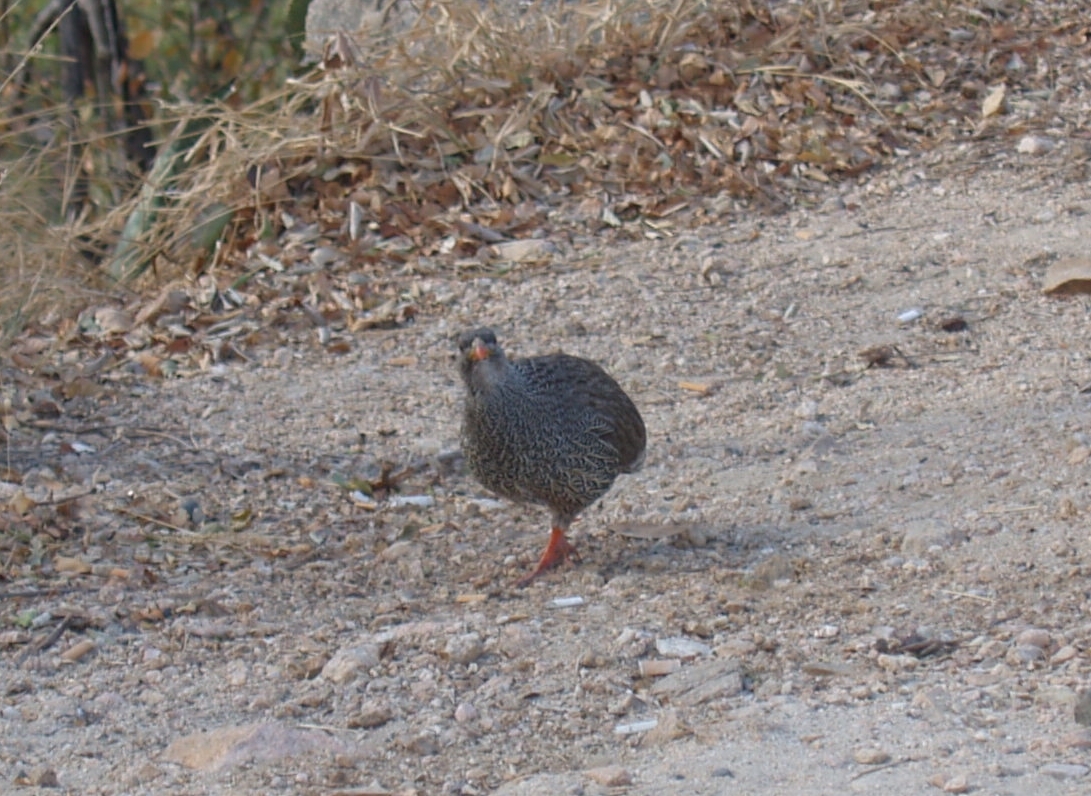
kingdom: Animalia
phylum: Chordata
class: Aves
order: Galliformes
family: Phasianidae
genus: Pternistis
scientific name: Pternistis natalensis
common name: Natal spurfowl
